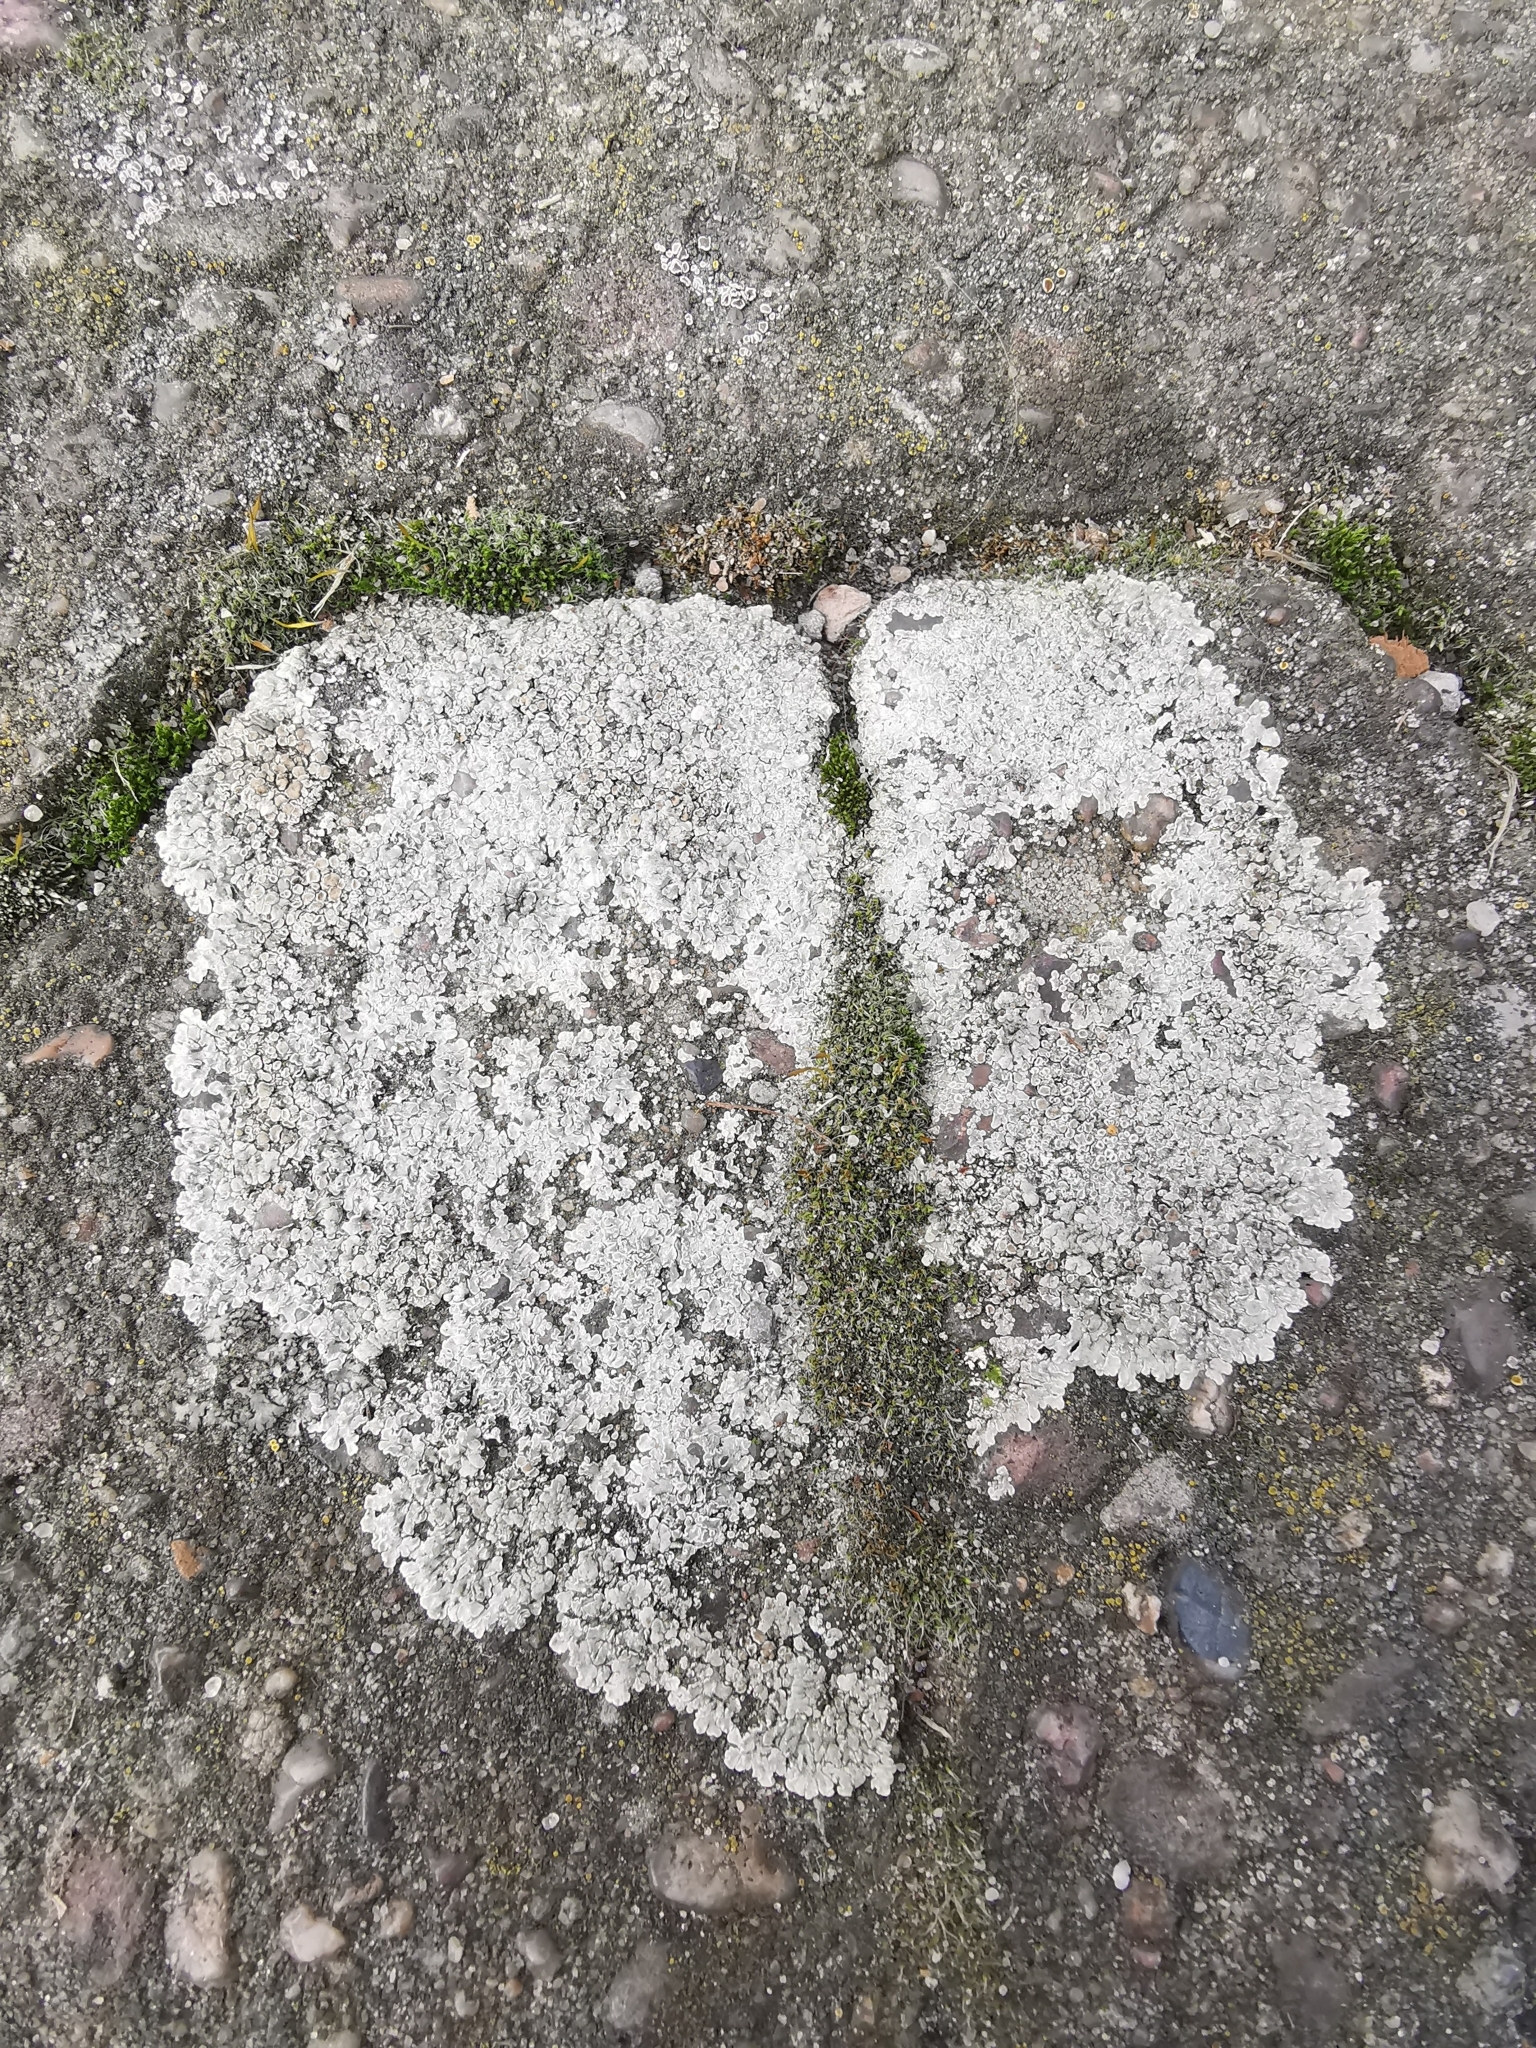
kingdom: Fungi
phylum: Ascomycota
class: Lecanoromycetes
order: Lecanorales
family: Lecanoraceae
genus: Protoparmeliopsis
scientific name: Protoparmeliopsis muralis
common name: Stonewall rim lichen
